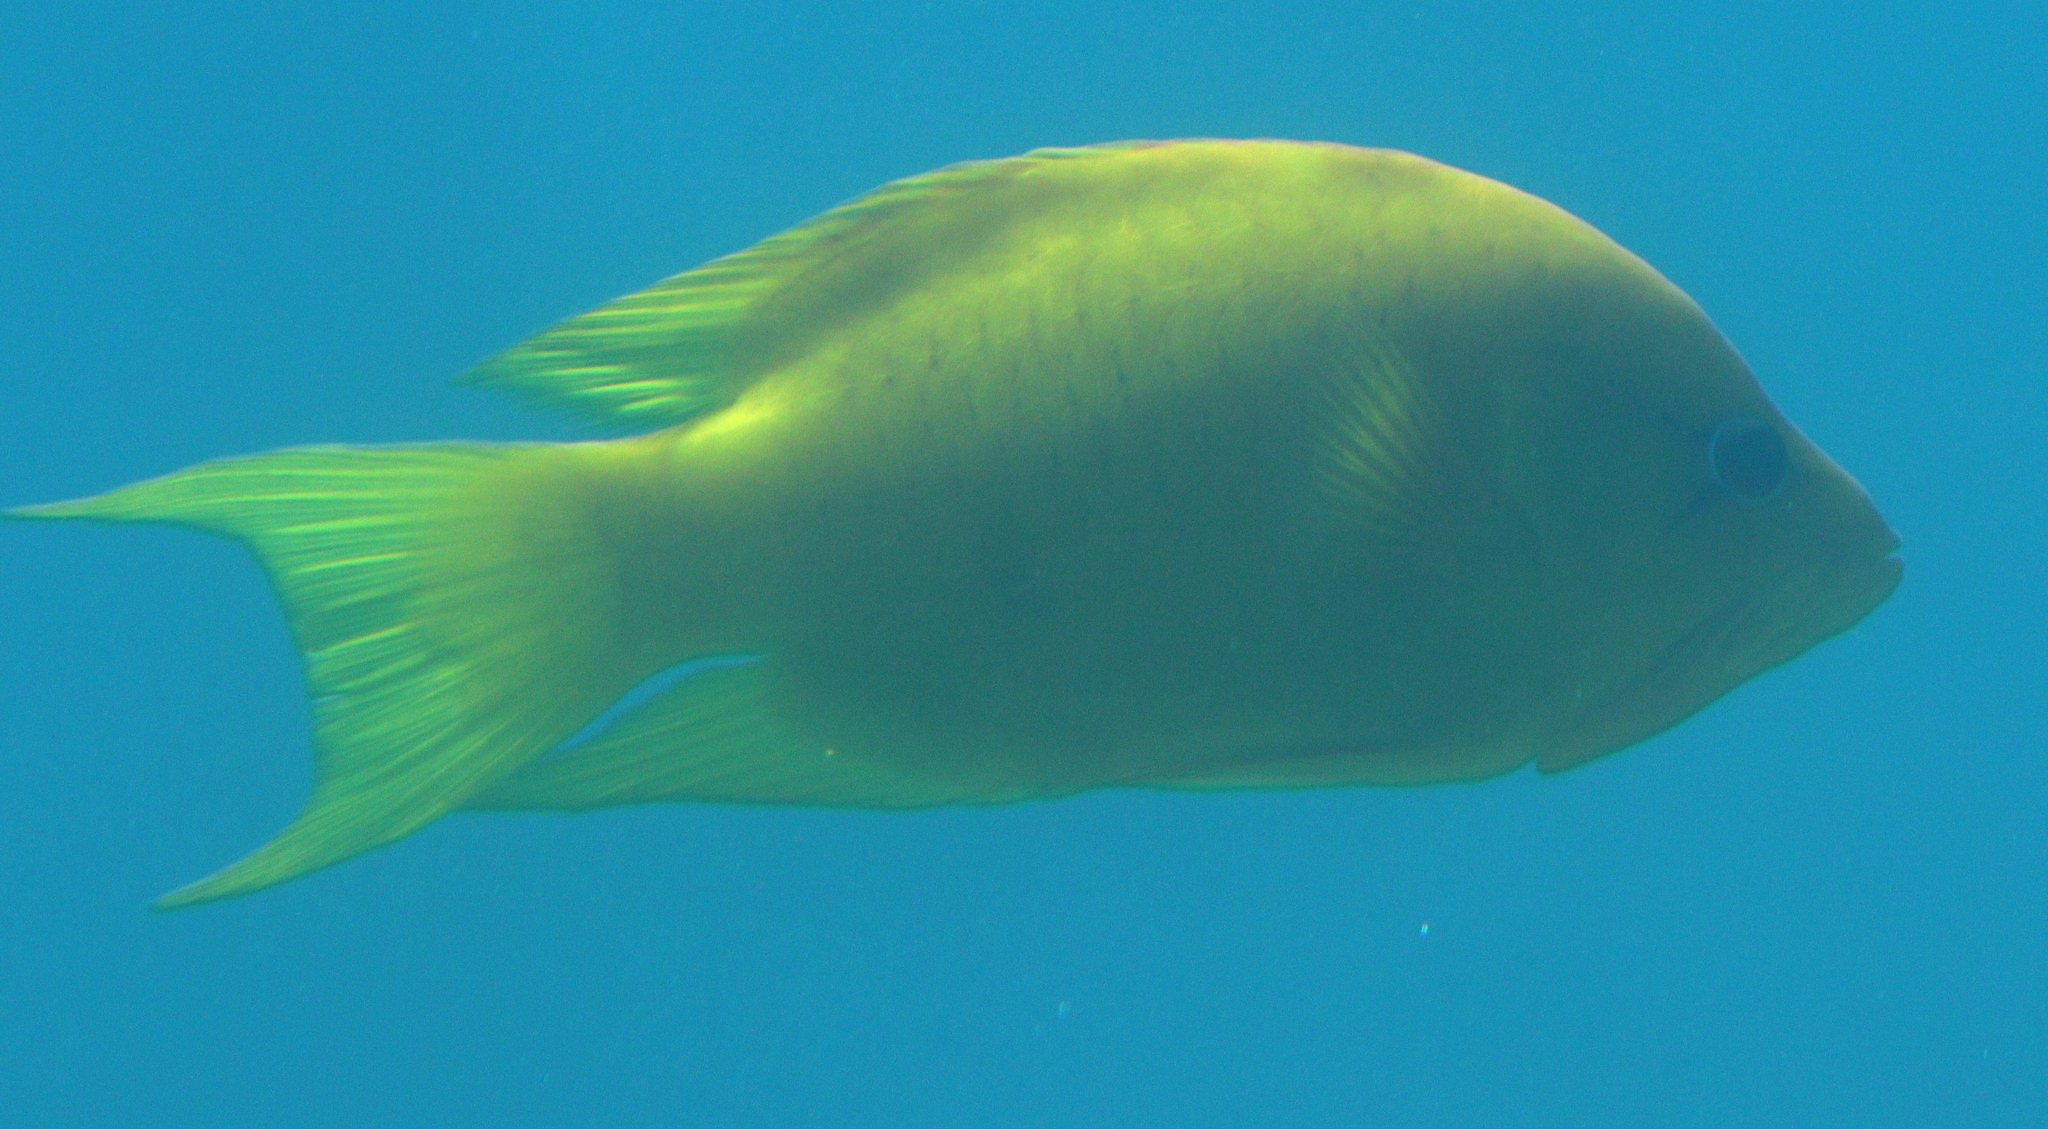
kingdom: Animalia
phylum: Chordata
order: Perciformes
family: Labridae
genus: Epibulus
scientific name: Epibulus insidiator
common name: Slingjaw wrasse
